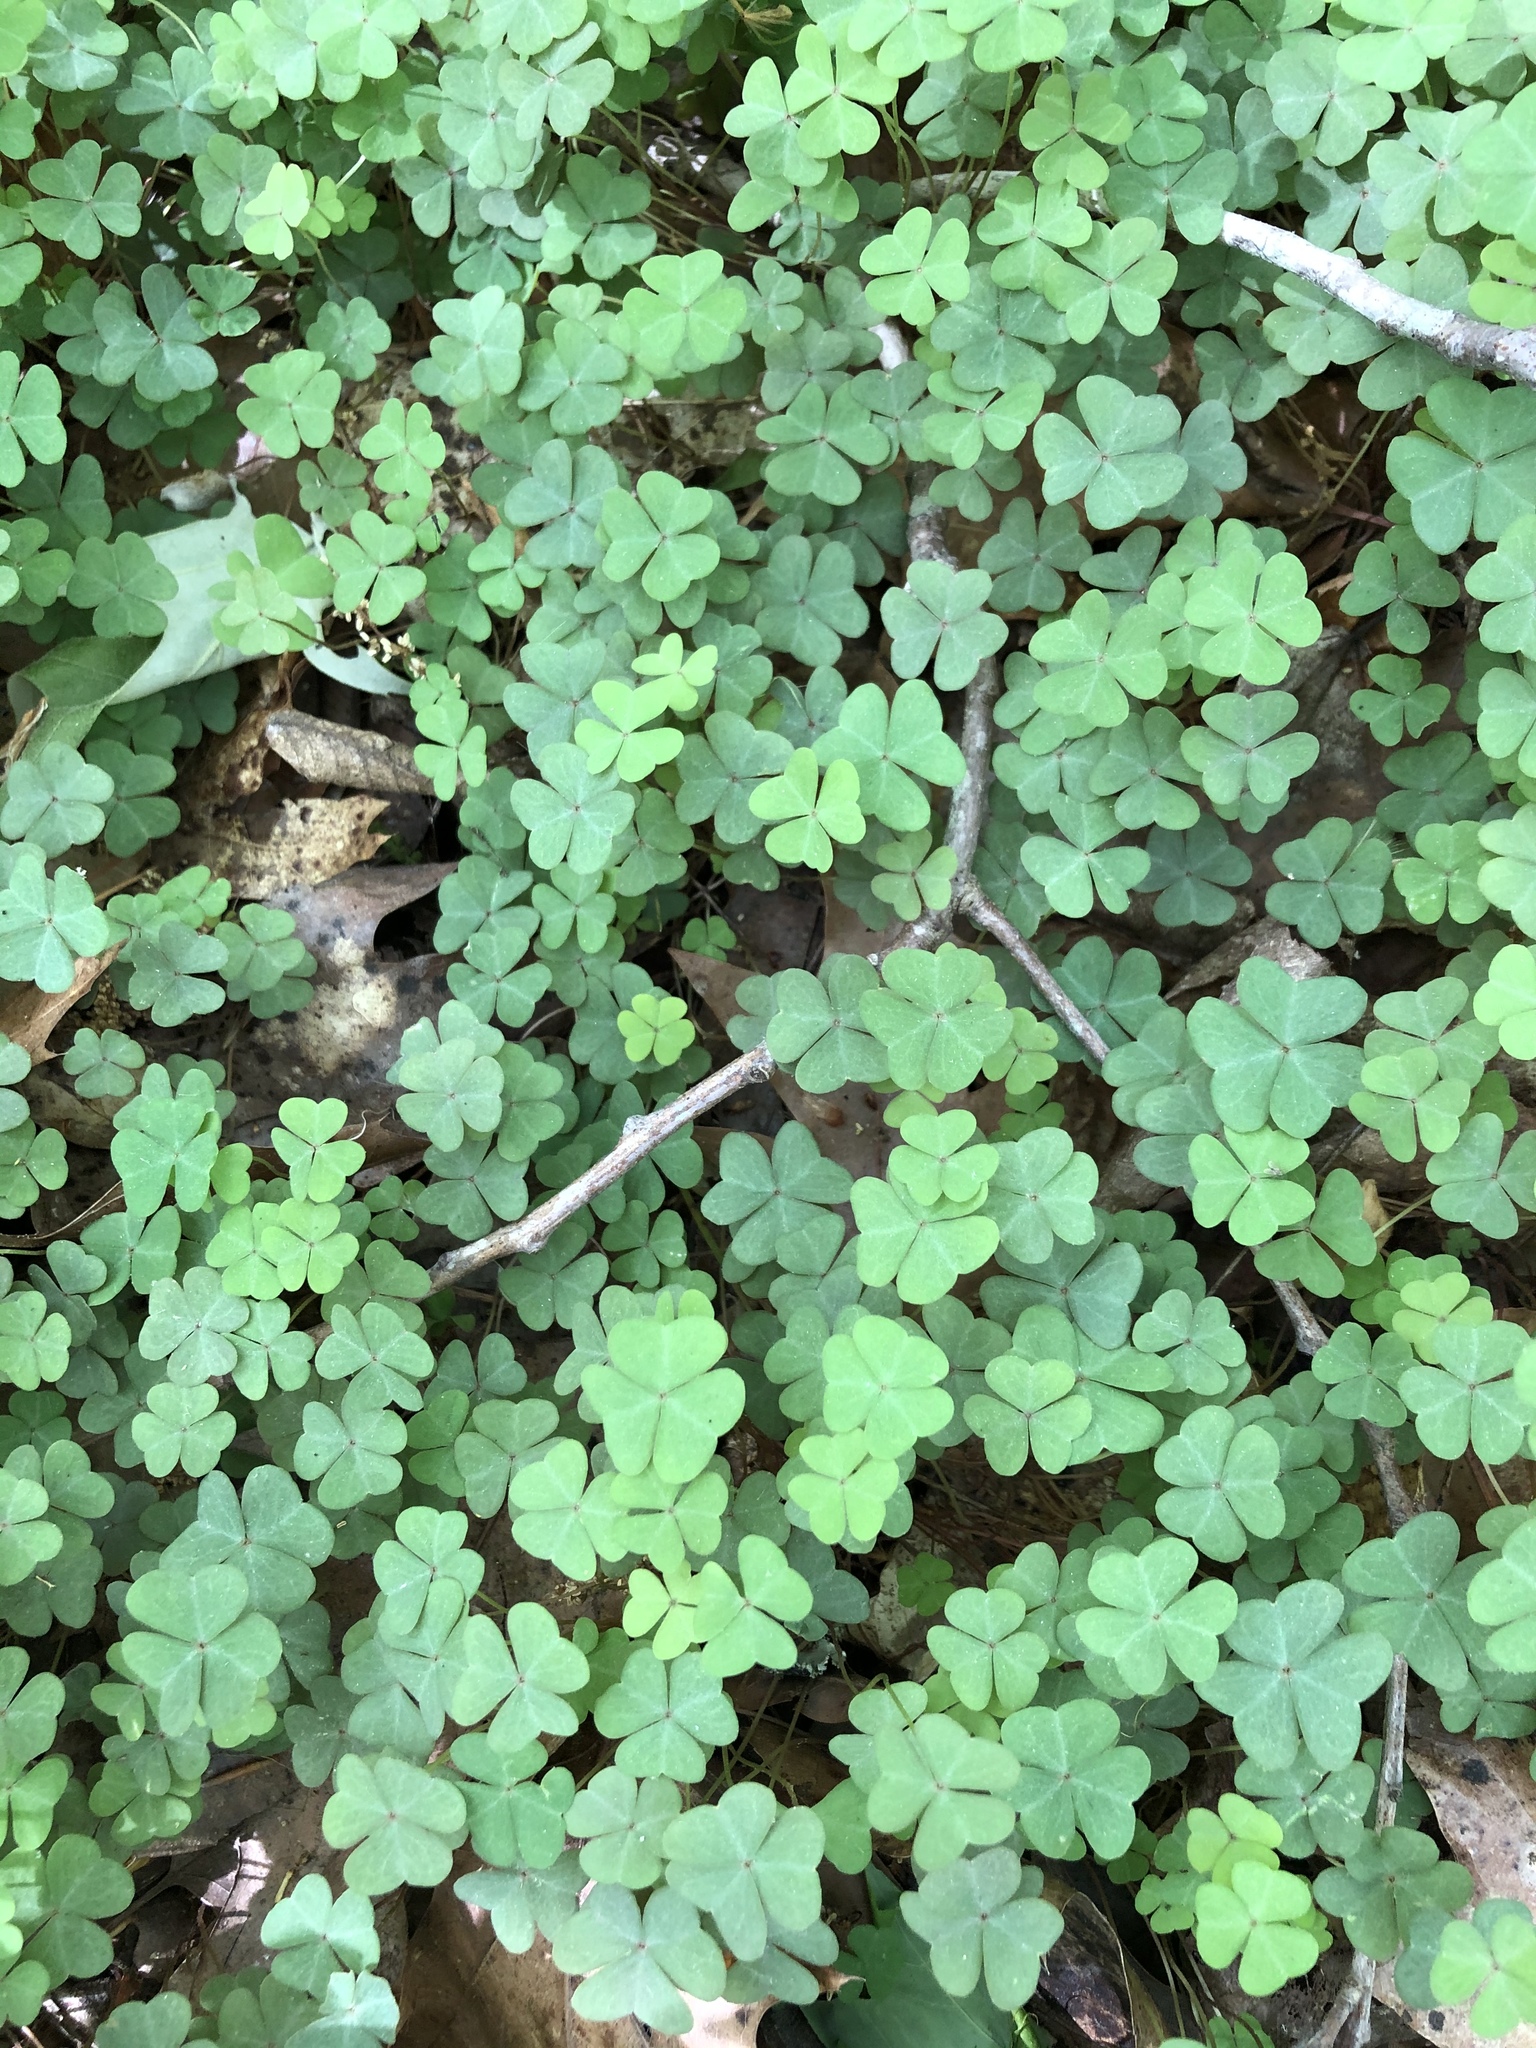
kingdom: Plantae
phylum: Tracheophyta
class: Magnoliopsida
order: Oxalidales
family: Oxalidaceae
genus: Oxalis
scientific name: Oxalis violacea
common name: Violet wood-sorrel
